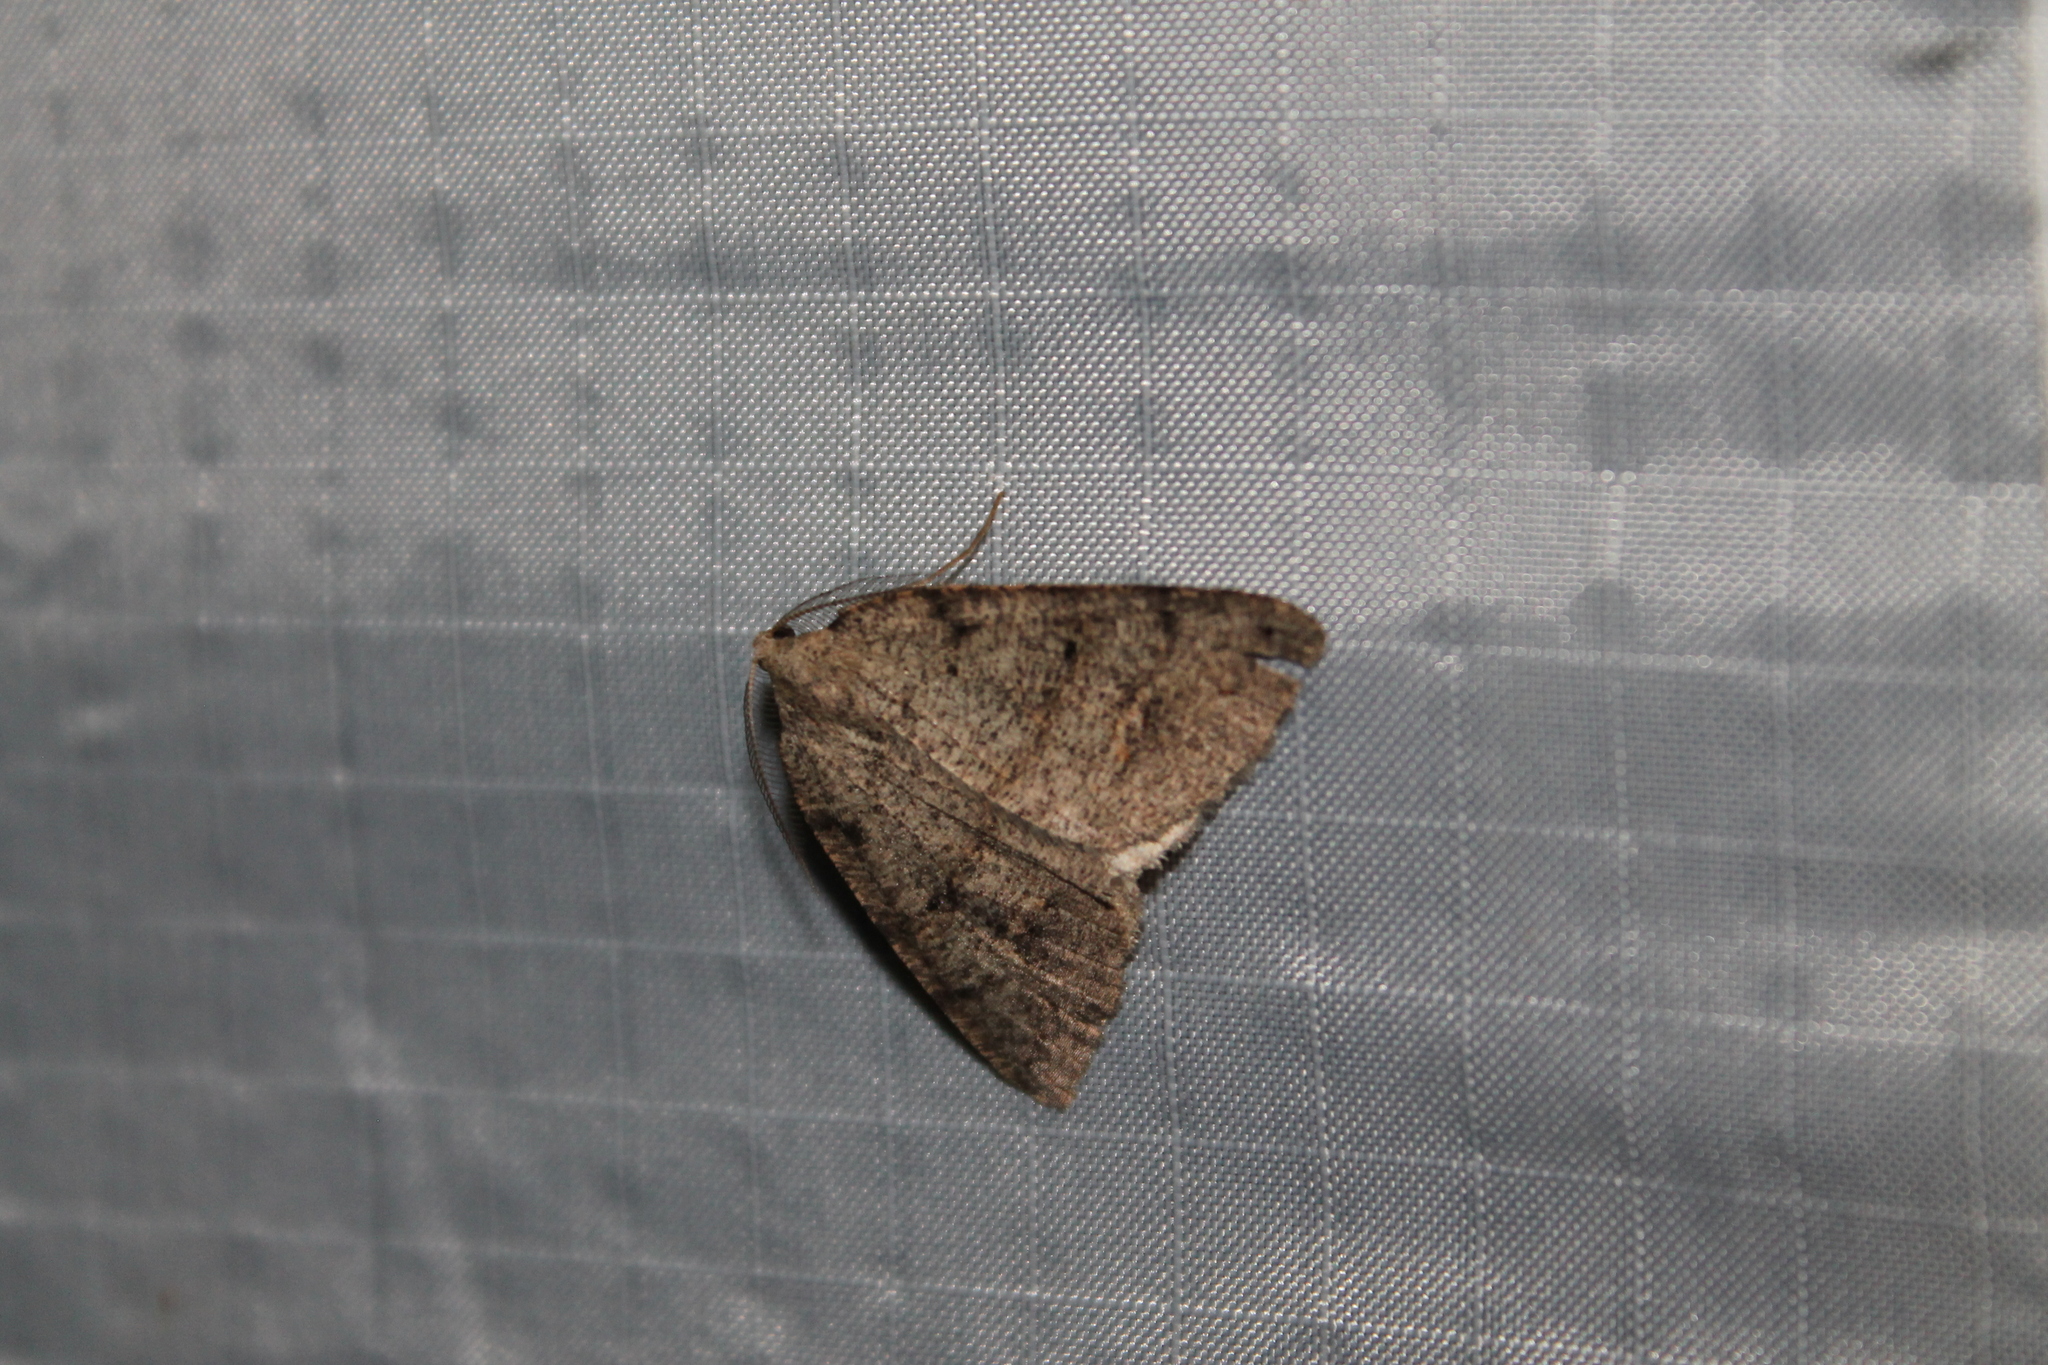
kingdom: Animalia
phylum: Arthropoda
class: Insecta
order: Lepidoptera
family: Geometridae
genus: Drepanulatrix
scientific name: Drepanulatrix quadraria
